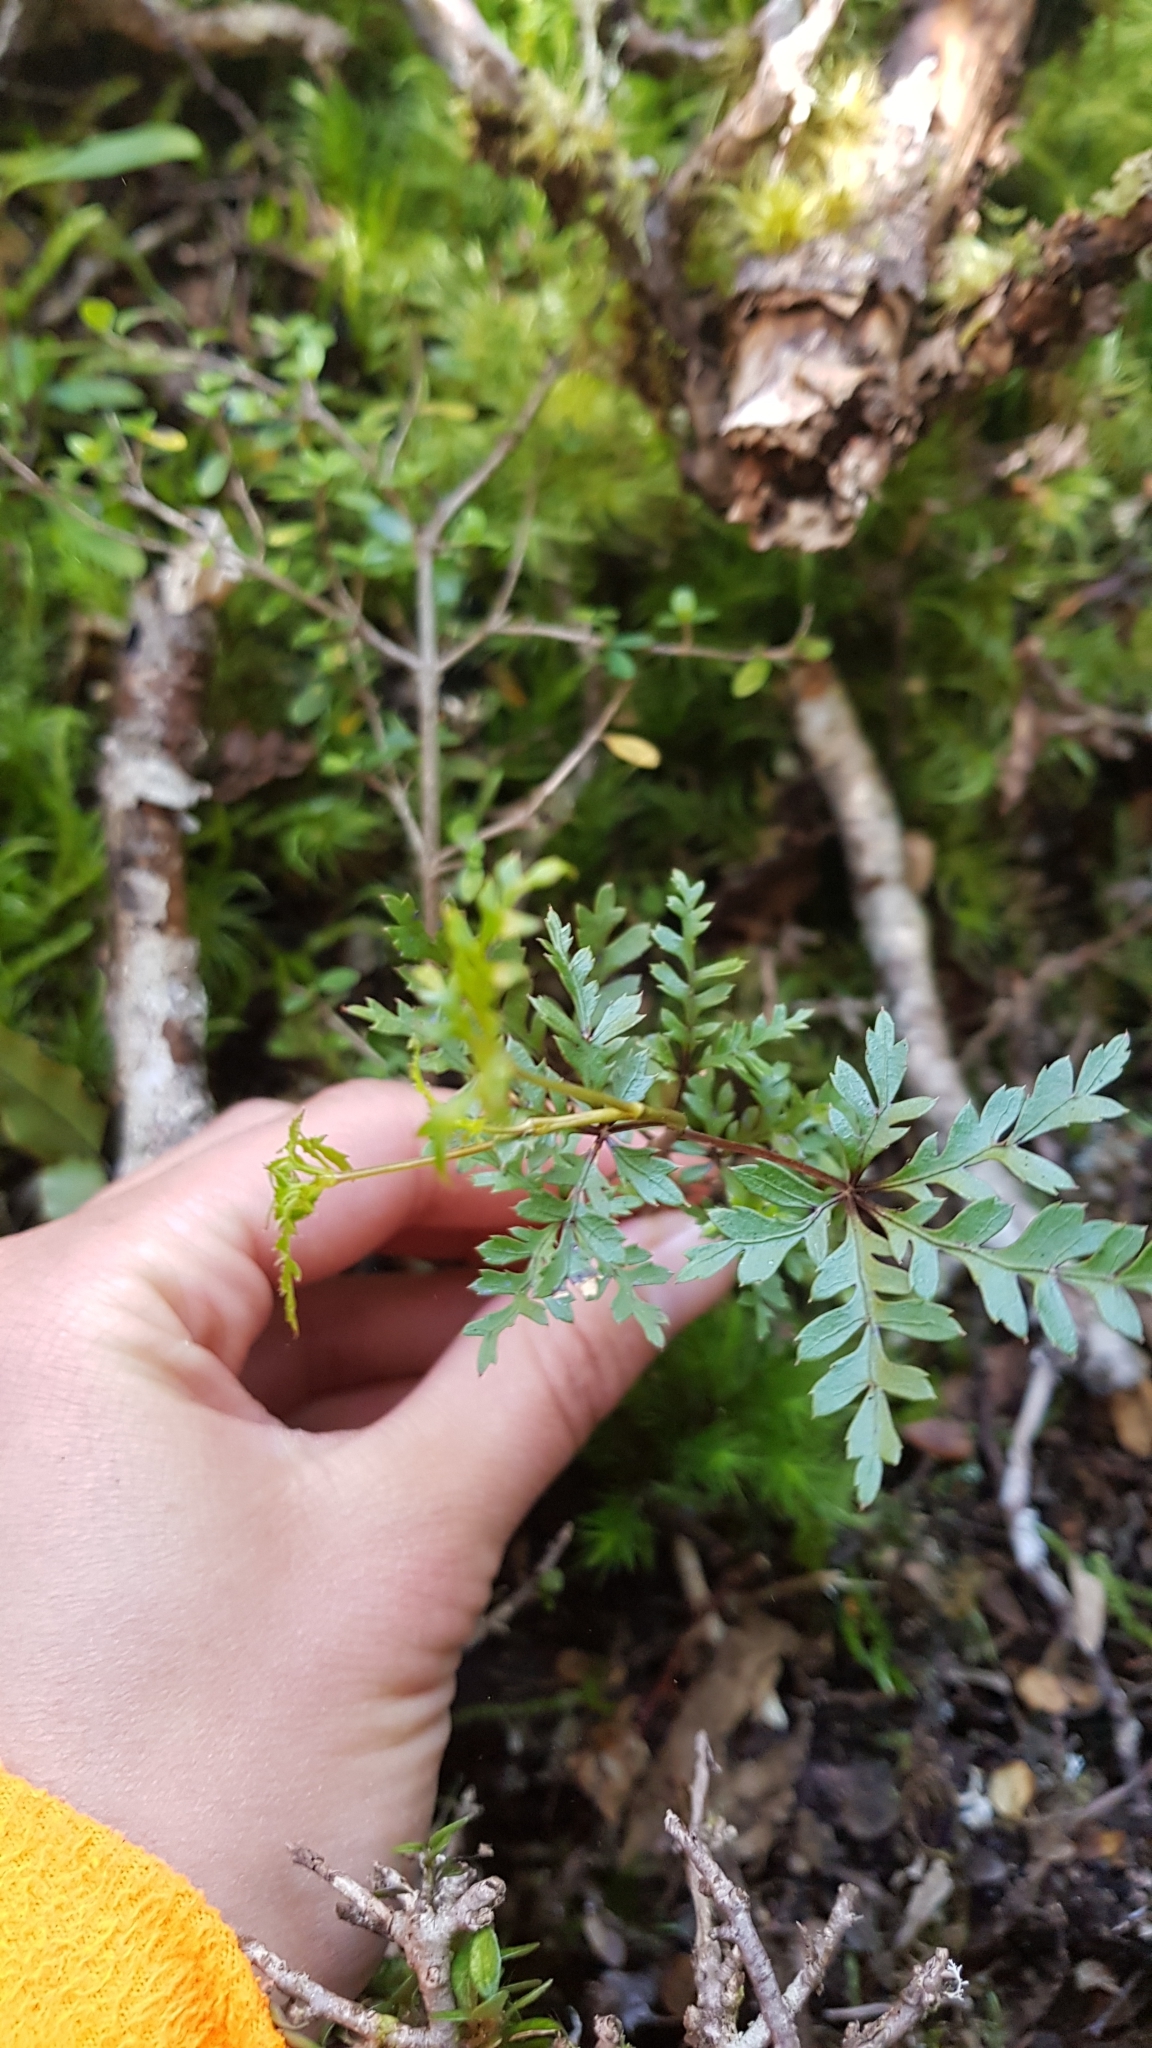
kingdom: Plantae
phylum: Tracheophyta
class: Magnoliopsida
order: Apiales
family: Araliaceae
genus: Raukaua
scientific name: Raukaua simplex
